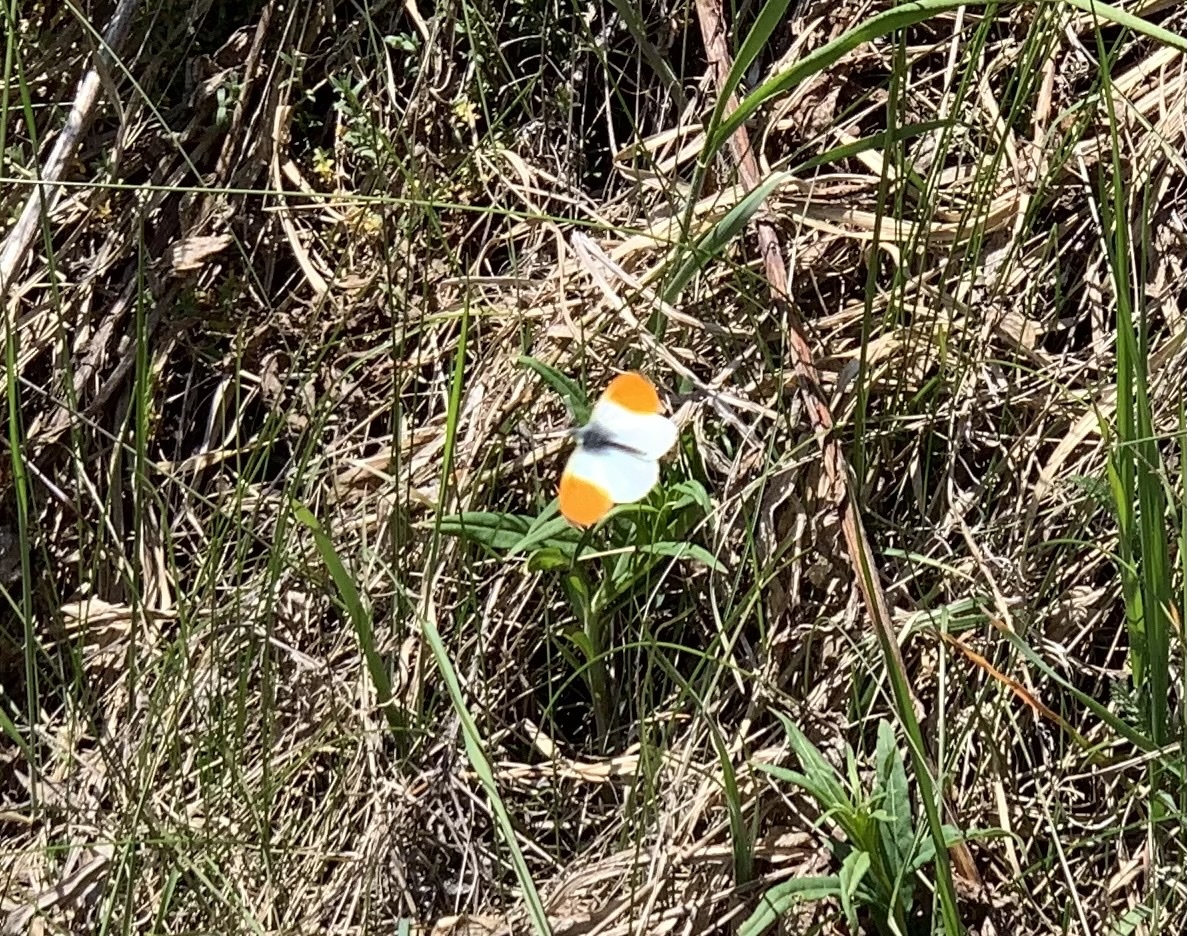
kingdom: Animalia
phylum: Arthropoda
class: Insecta
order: Lepidoptera
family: Pieridae
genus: Anthocharis
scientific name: Anthocharis cardamines
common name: Orange-tip
